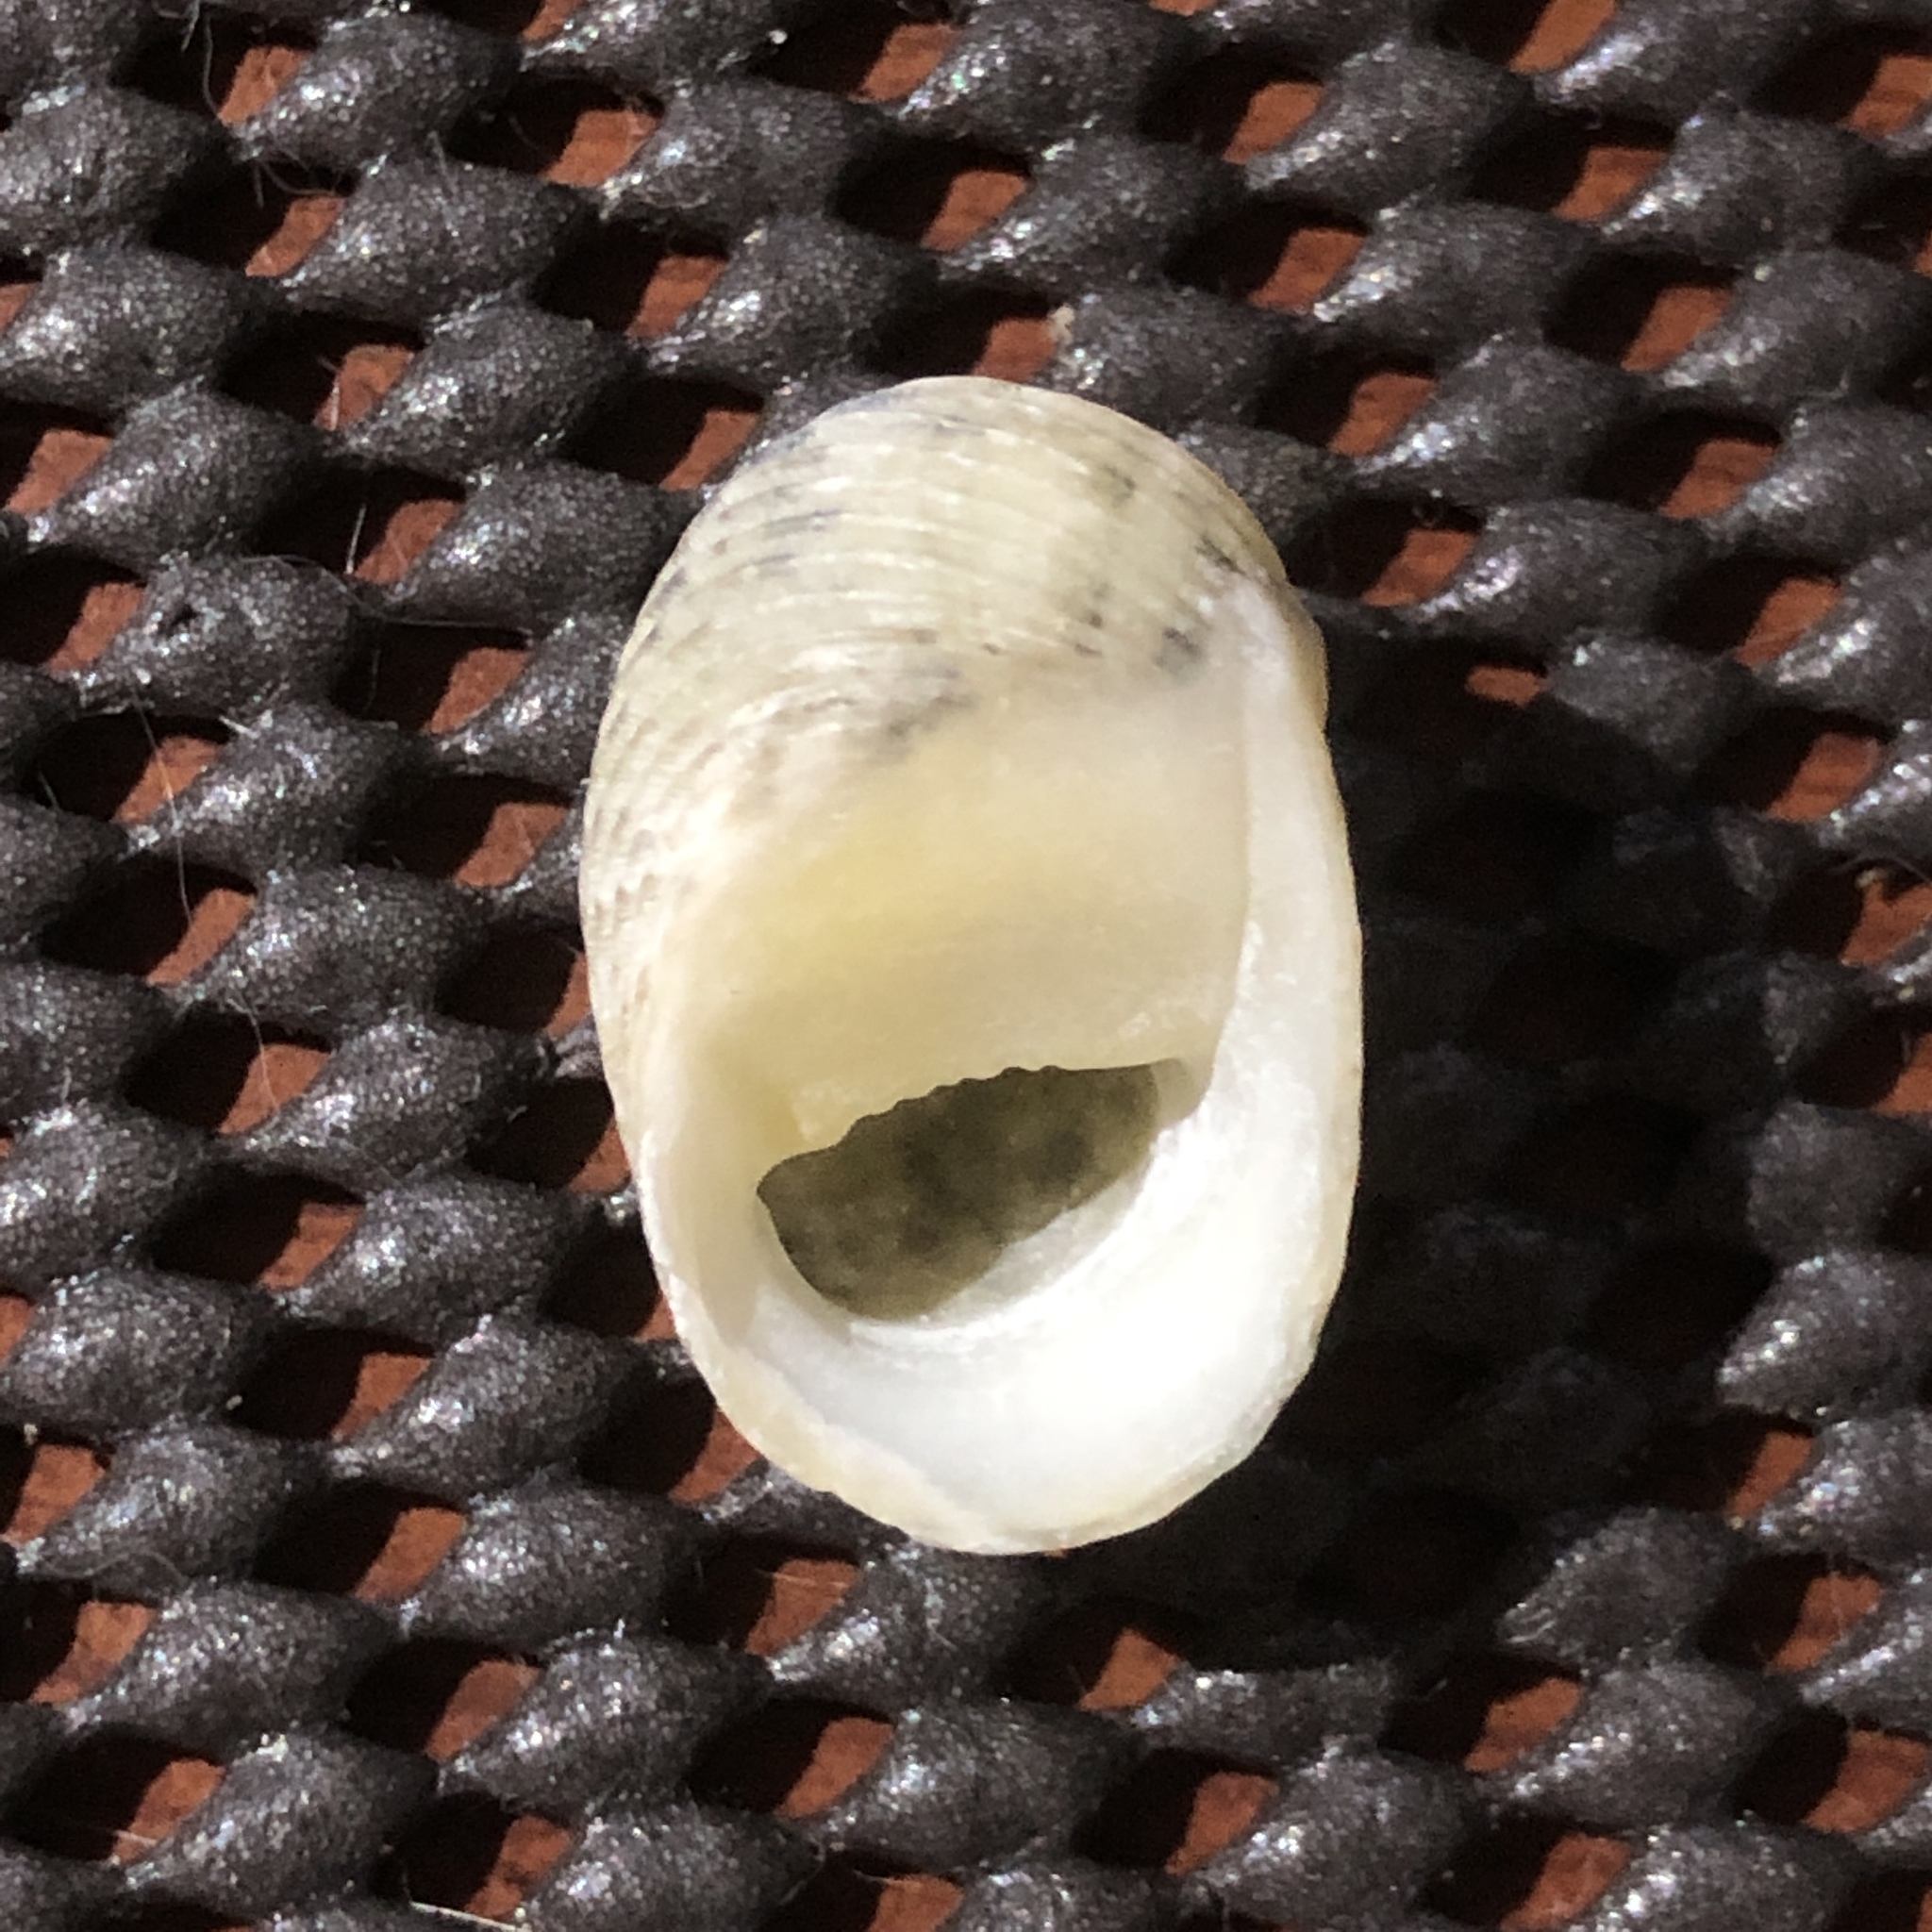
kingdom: Animalia
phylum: Mollusca
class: Gastropoda
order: Cycloneritida
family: Neritidae
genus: Nerita
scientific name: Nerita chamaeleon
